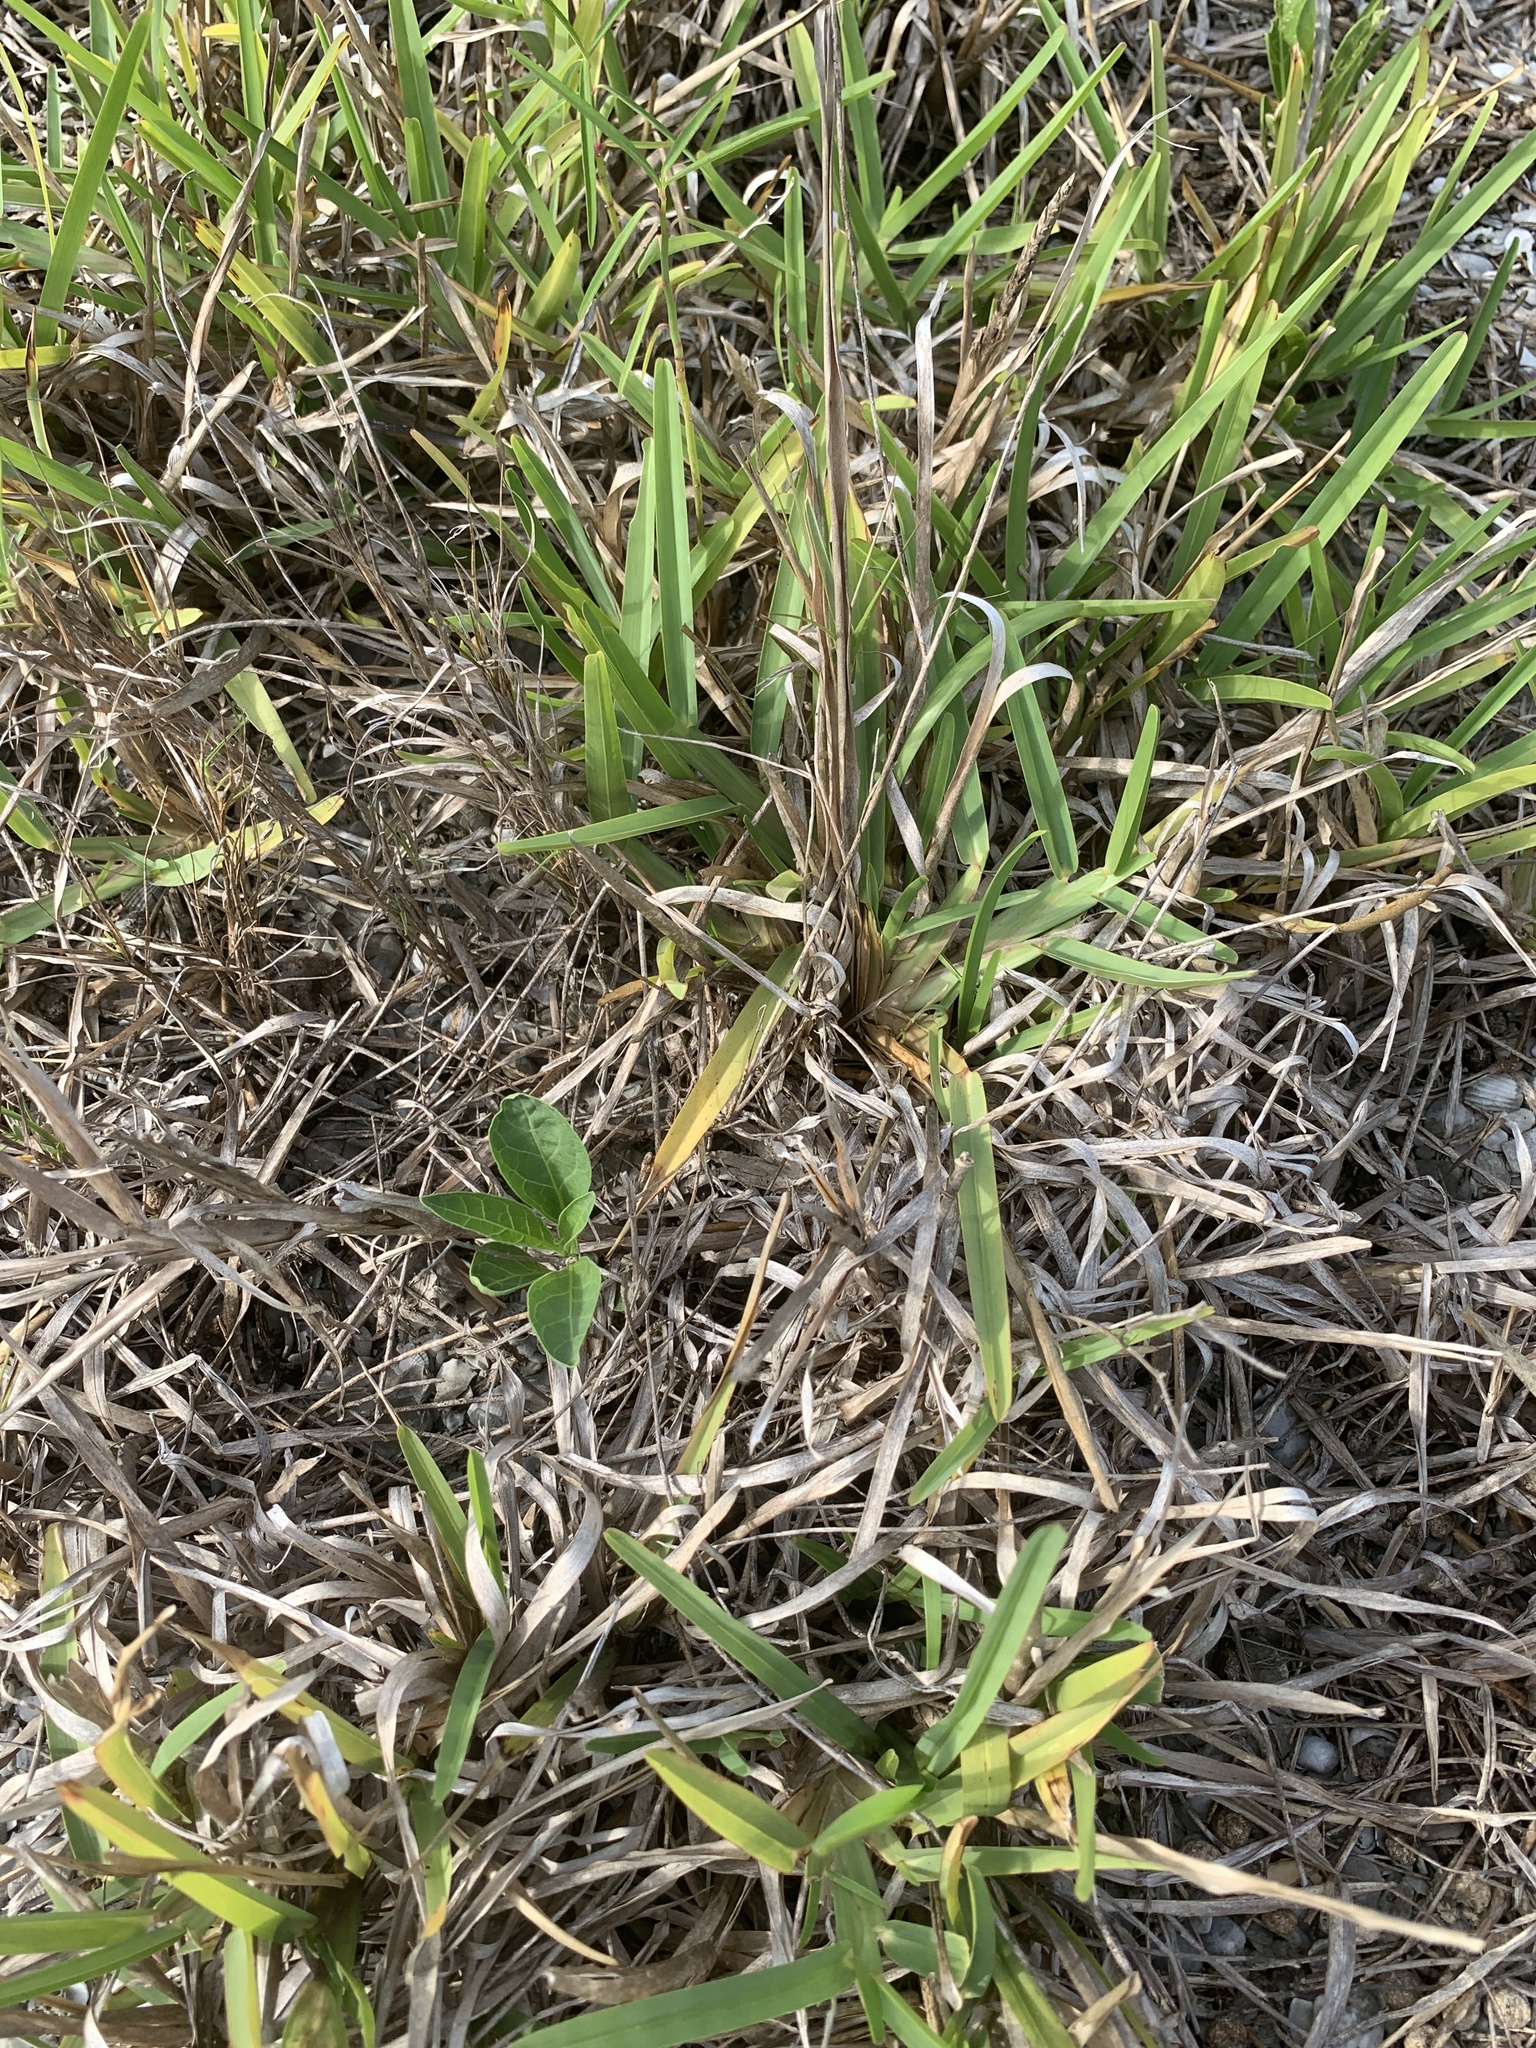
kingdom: Plantae
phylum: Tracheophyta
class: Liliopsida
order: Poales
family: Poaceae
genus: Stenotaphrum
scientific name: Stenotaphrum secundatum
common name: St. augustine grass
